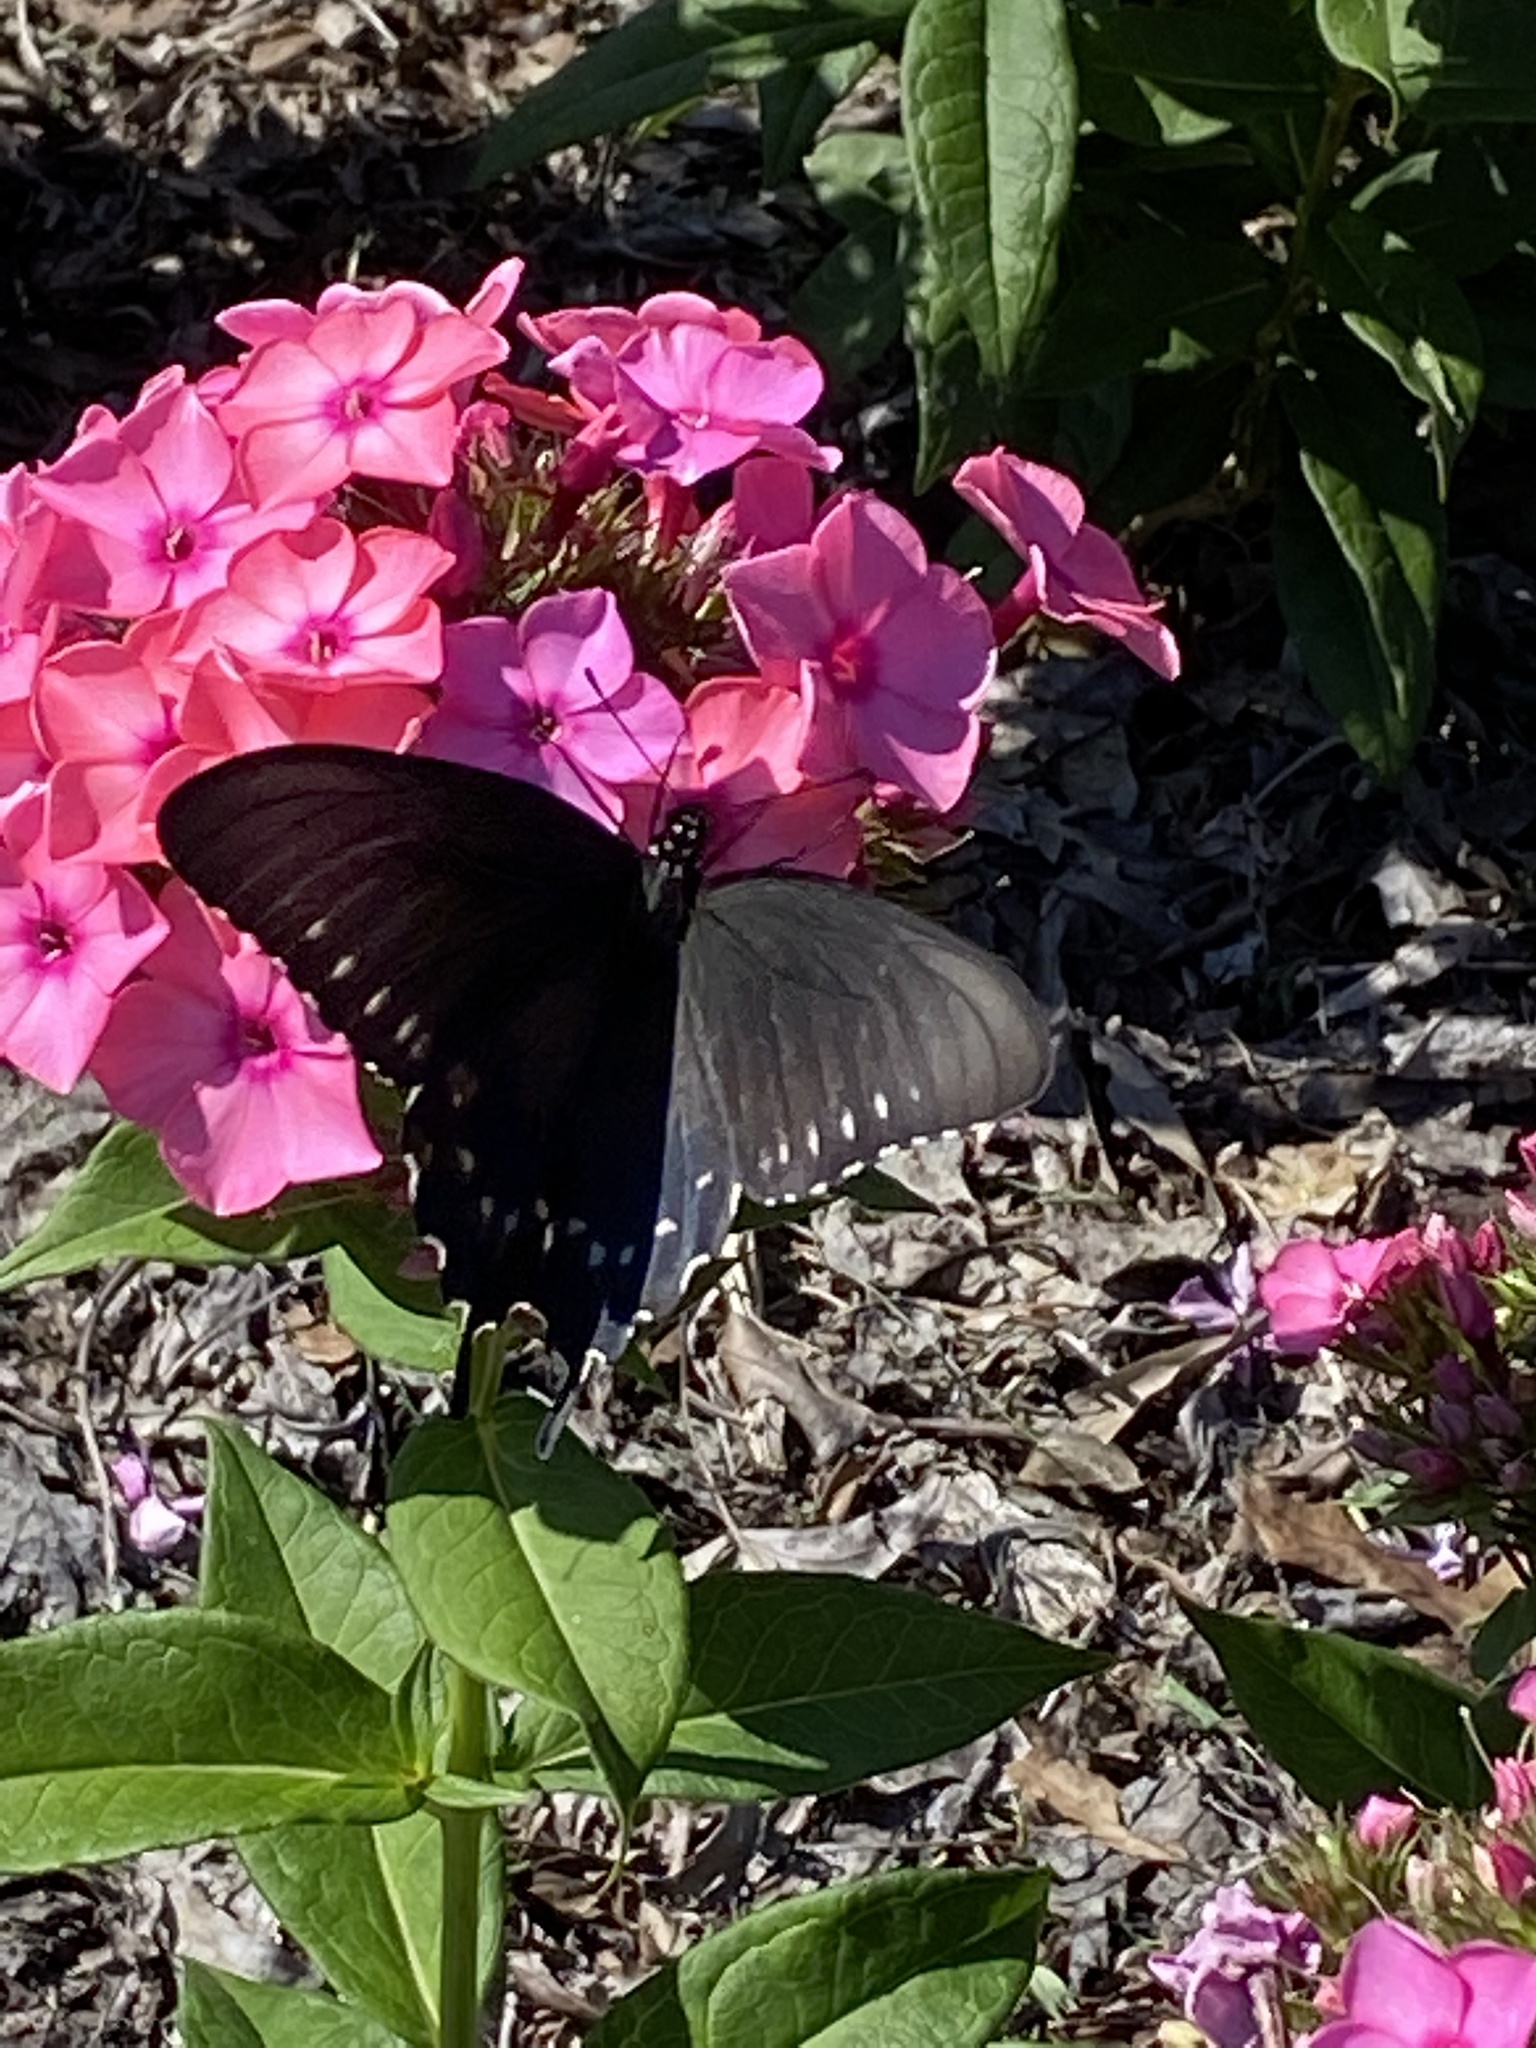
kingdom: Animalia
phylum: Arthropoda
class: Insecta
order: Lepidoptera
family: Papilionidae
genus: Battus
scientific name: Battus philenor
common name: Pipevine swallowtail
